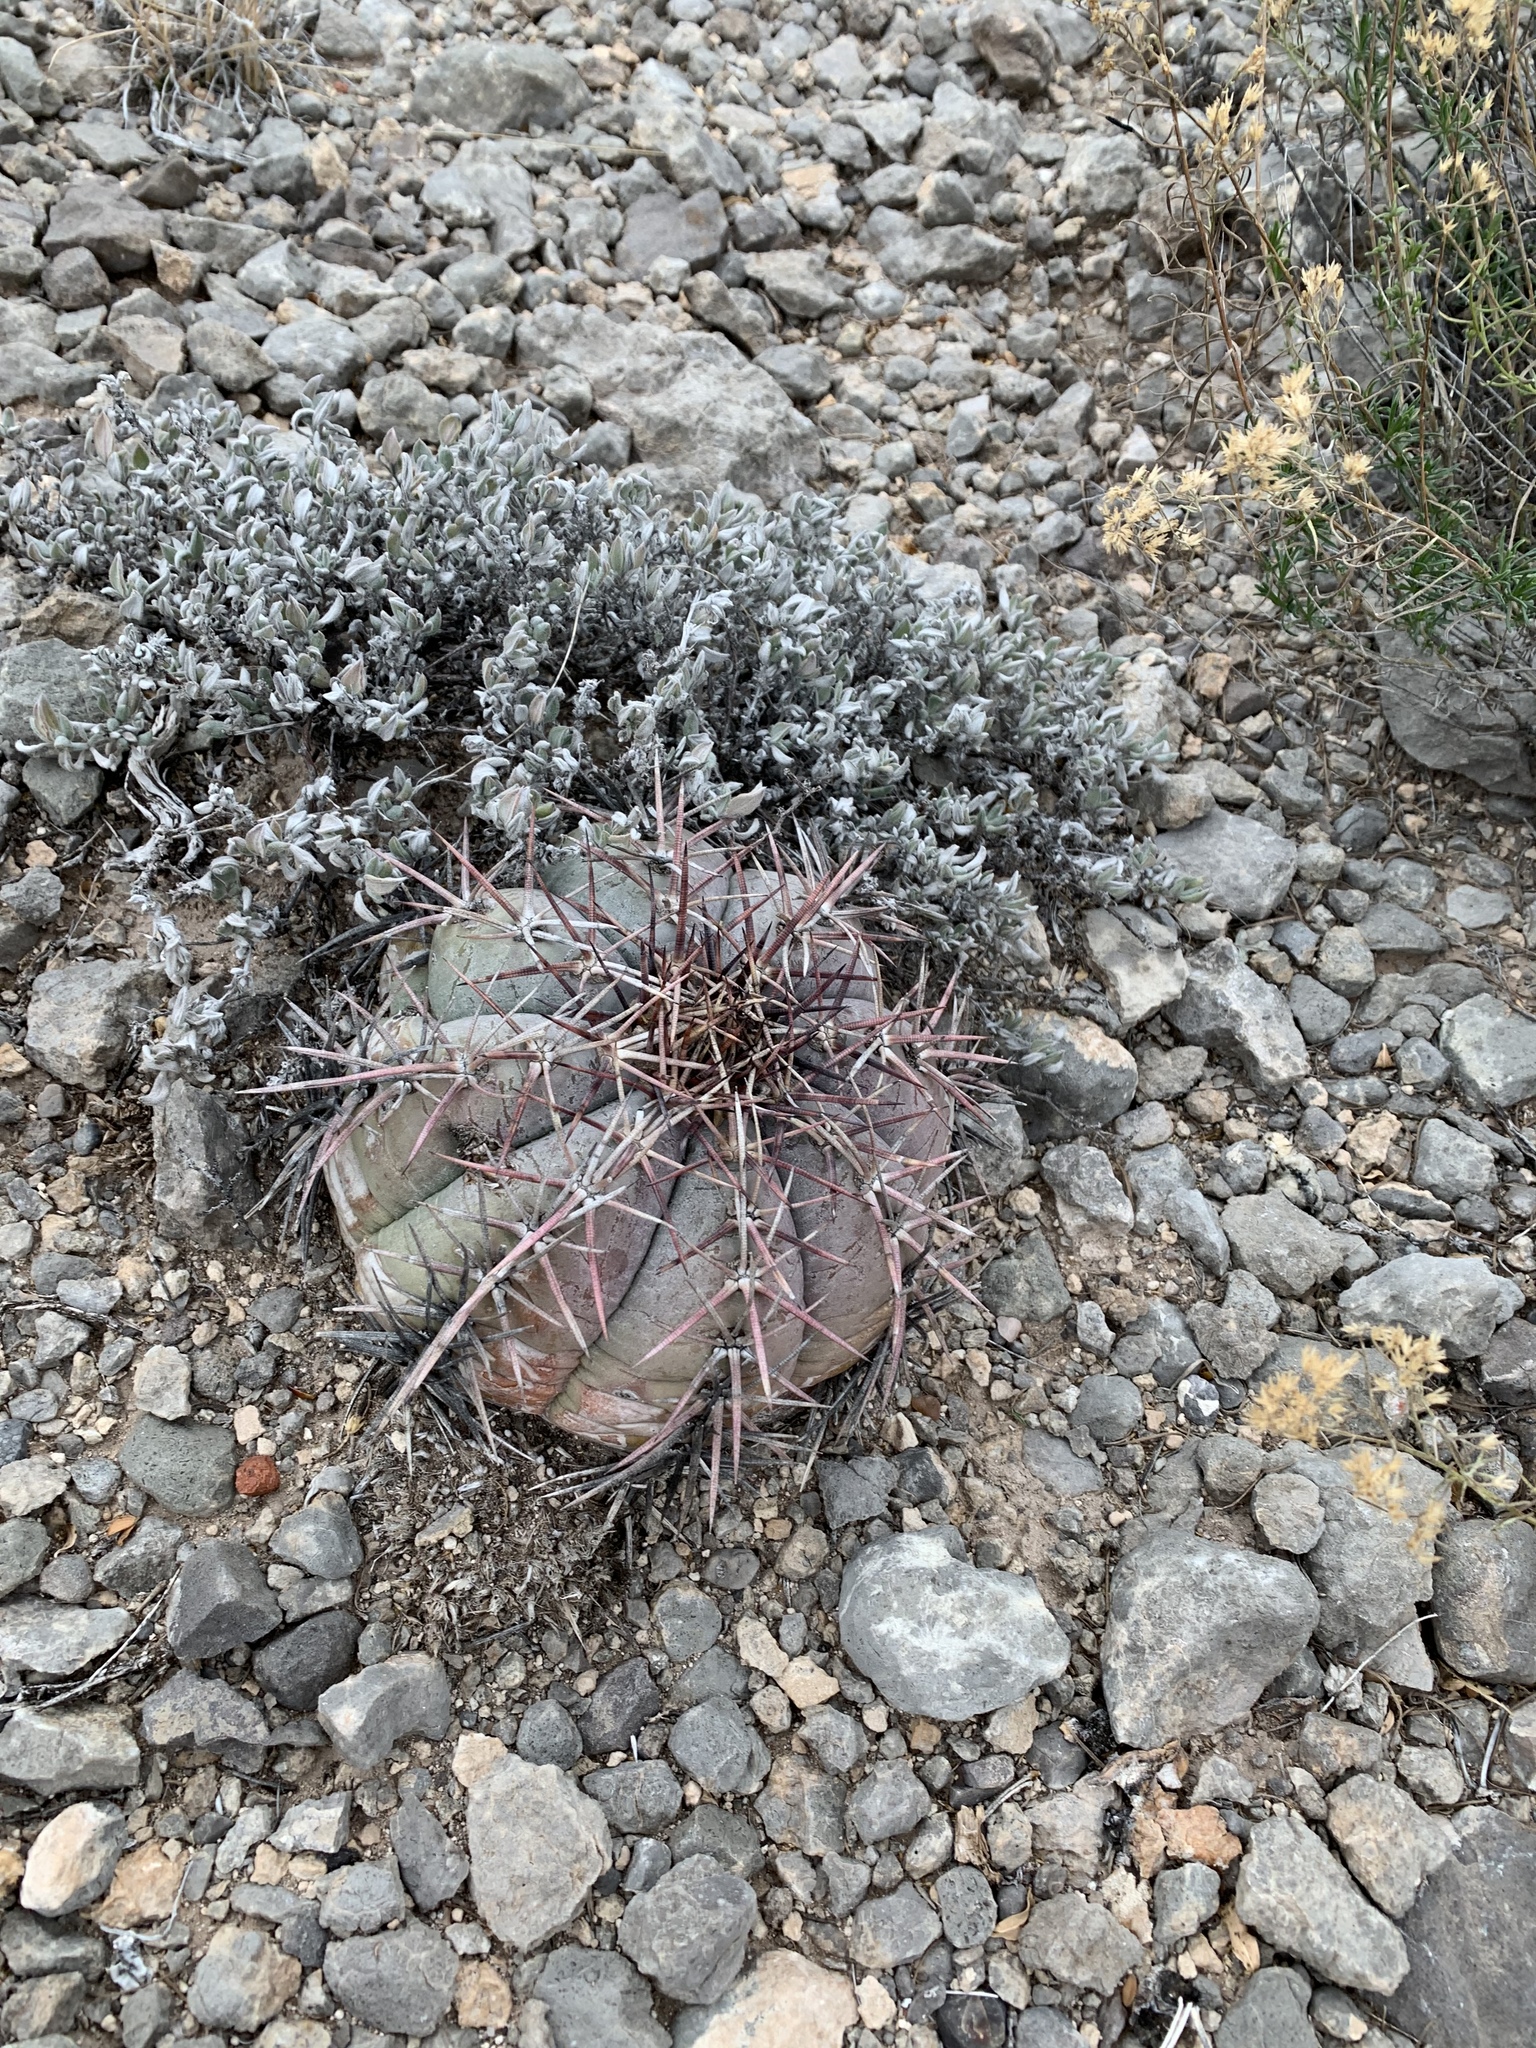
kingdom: Plantae
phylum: Tracheophyta
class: Magnoliopsida
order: Caryophyllales
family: Cactaceae
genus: Echinocactus
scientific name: Echinocactus horizonthalonius
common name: Devilshead
